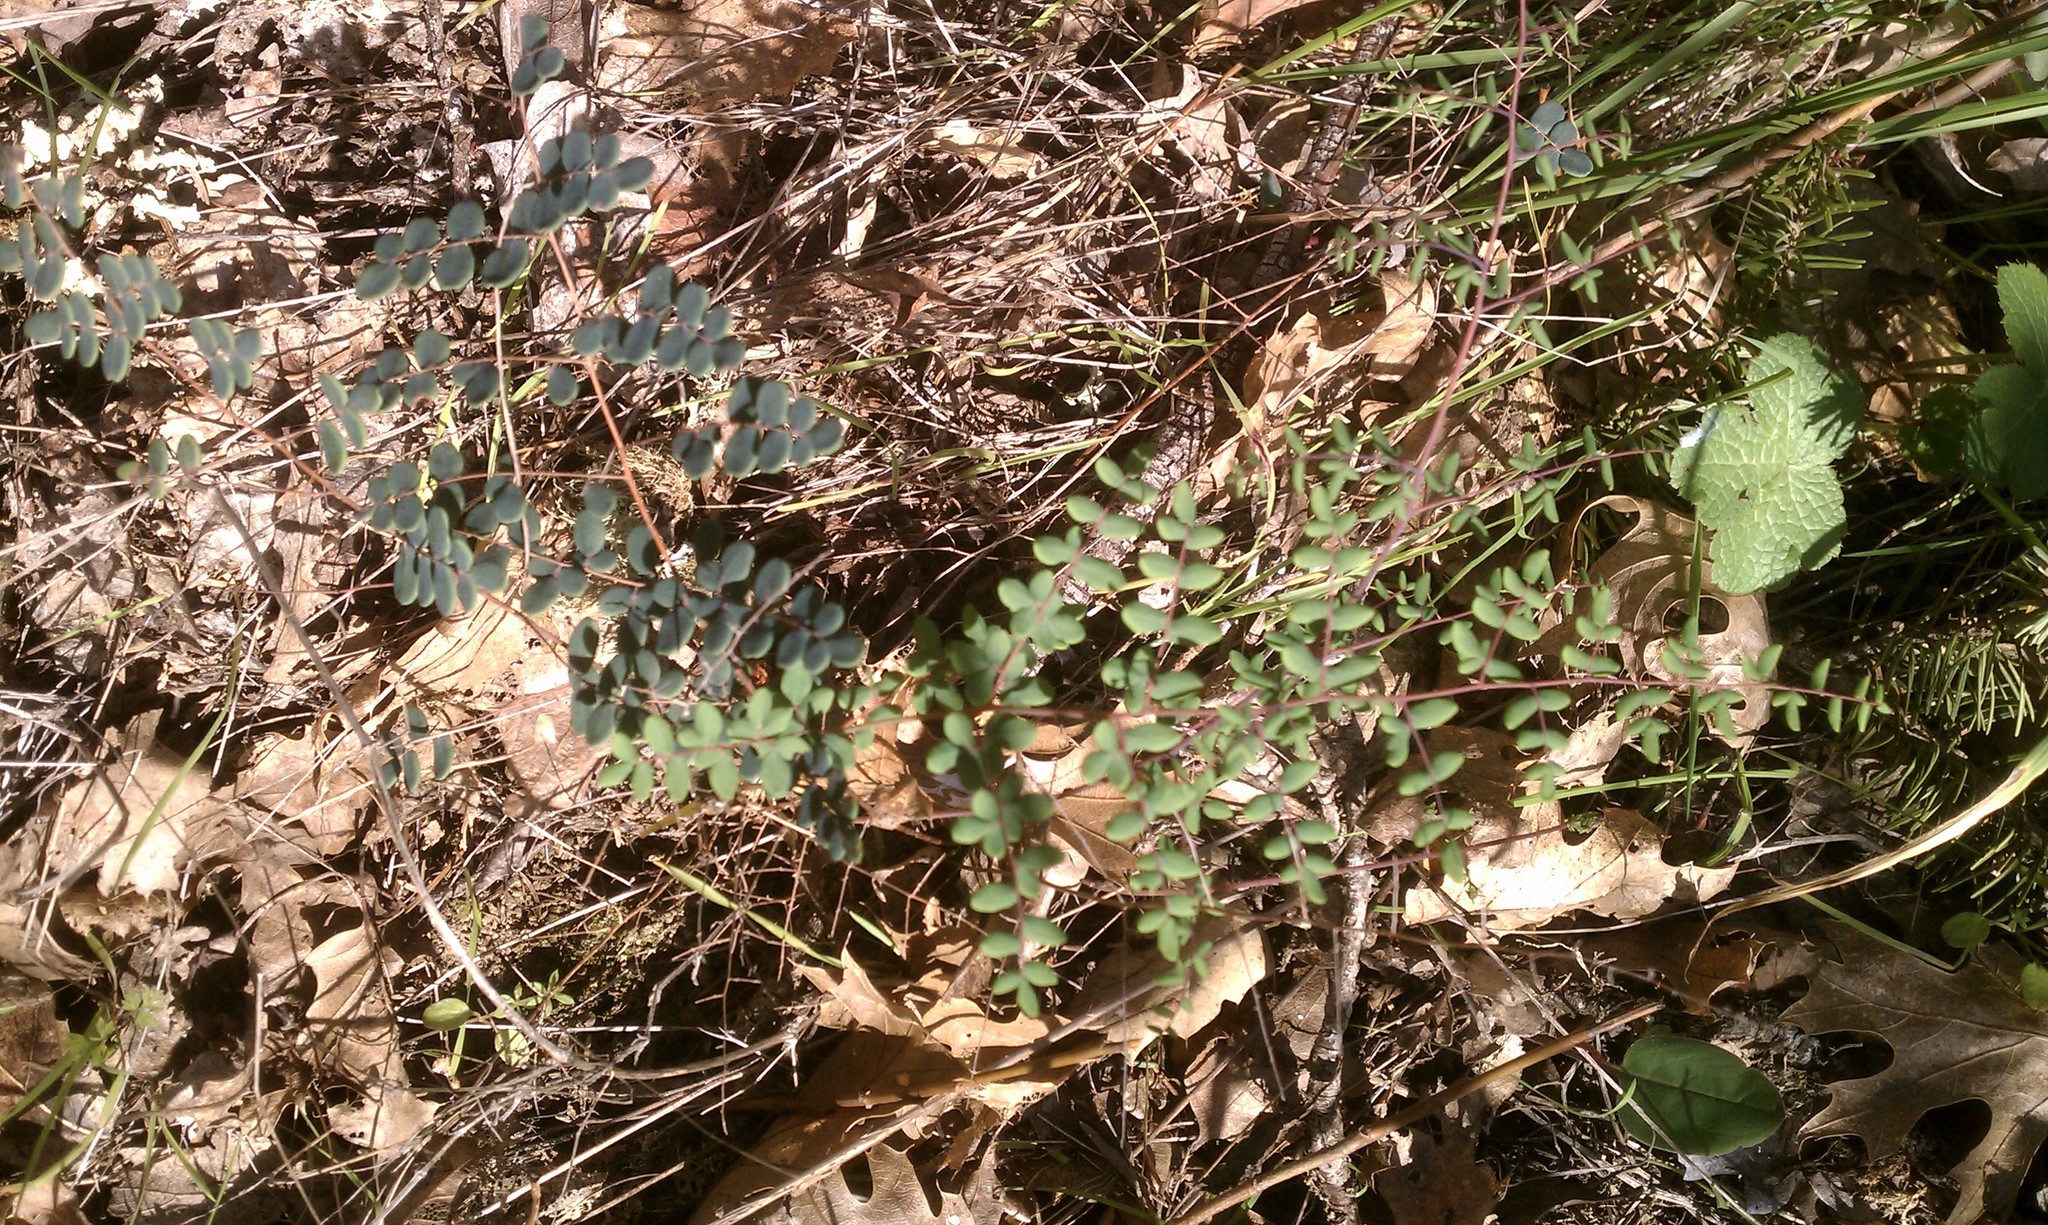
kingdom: Plantae
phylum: Tracheophyta
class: Polypodiopsida
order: Polypodiales
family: Pteridaceae
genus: Pellaea
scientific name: Pellaea andromedifolia
